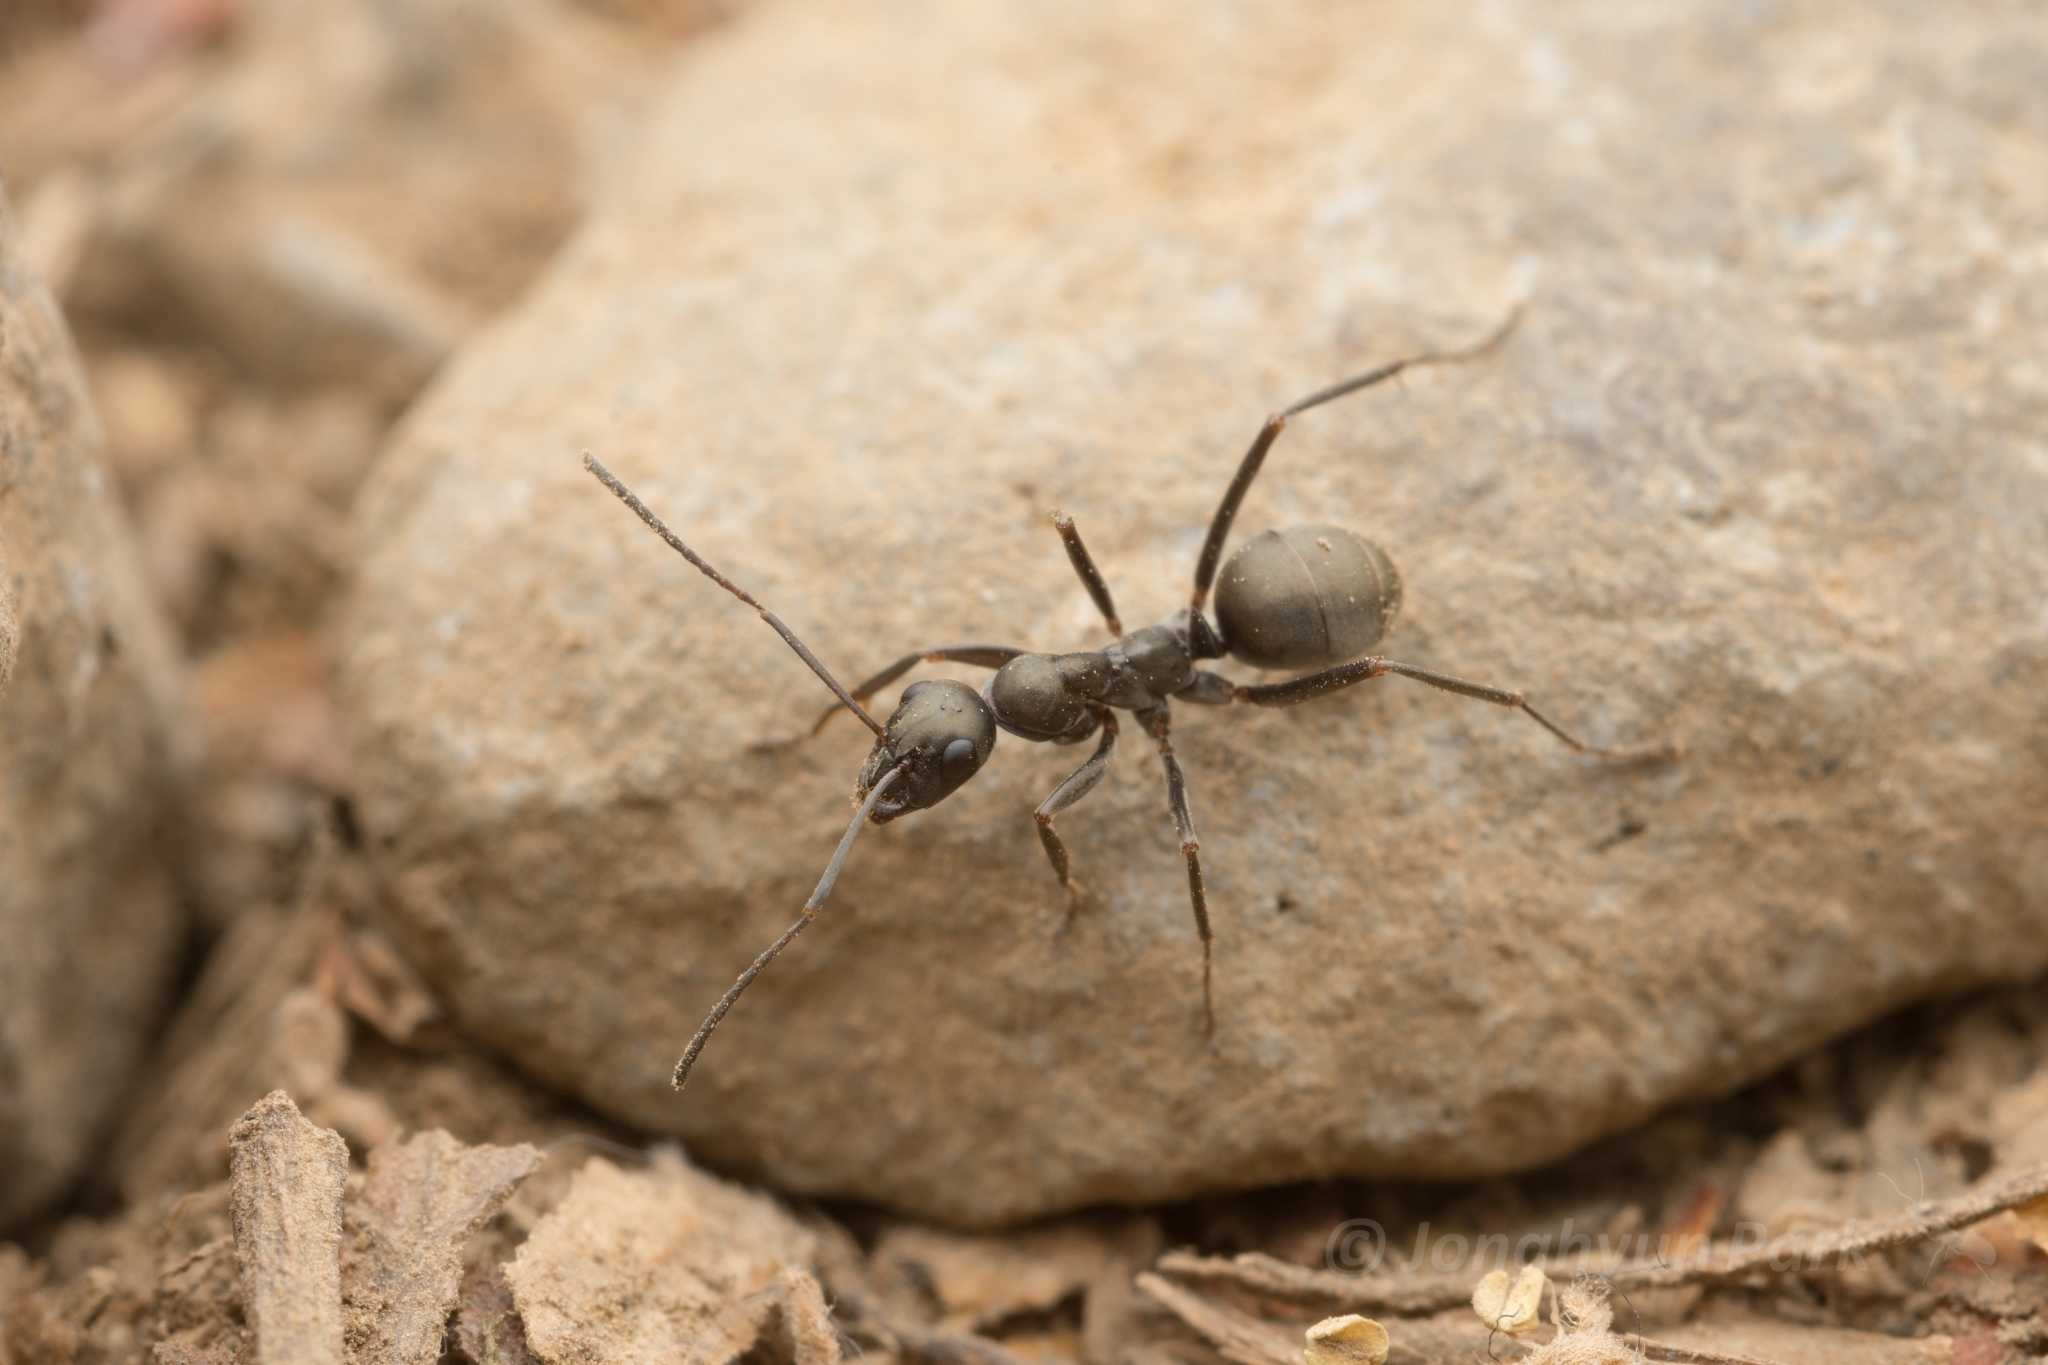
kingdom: Animalia
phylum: Arthropoda
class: Insecta
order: Hymenoptera
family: Formicidae
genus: Formica
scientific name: Formica hayashi
